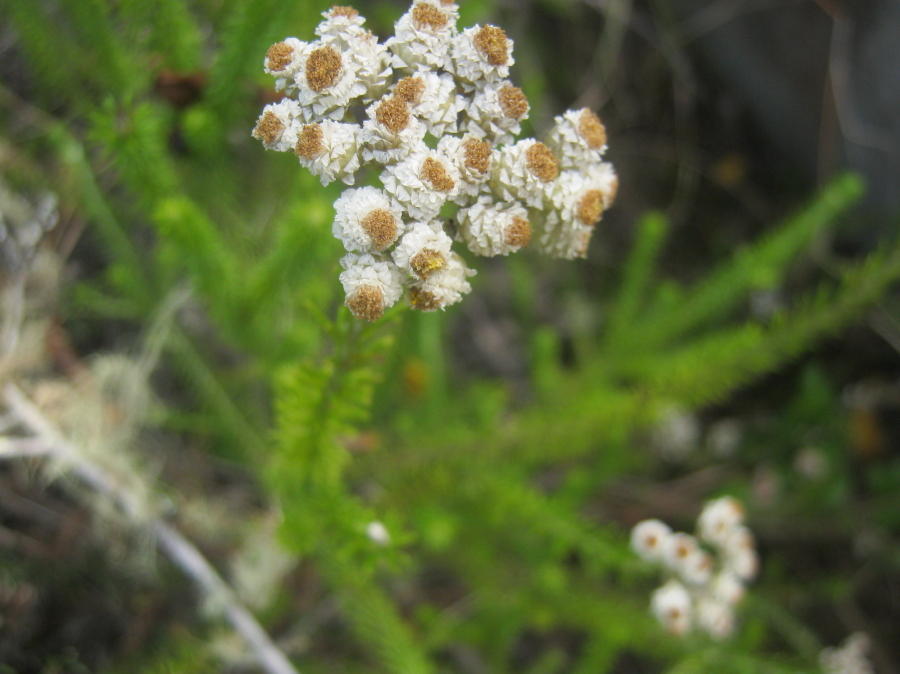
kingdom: Plantae
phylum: Tracheophyta
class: Magnoliopsida
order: Asterales
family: Asteraceae
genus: Helichrysum
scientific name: Helichrysum teretifolium
